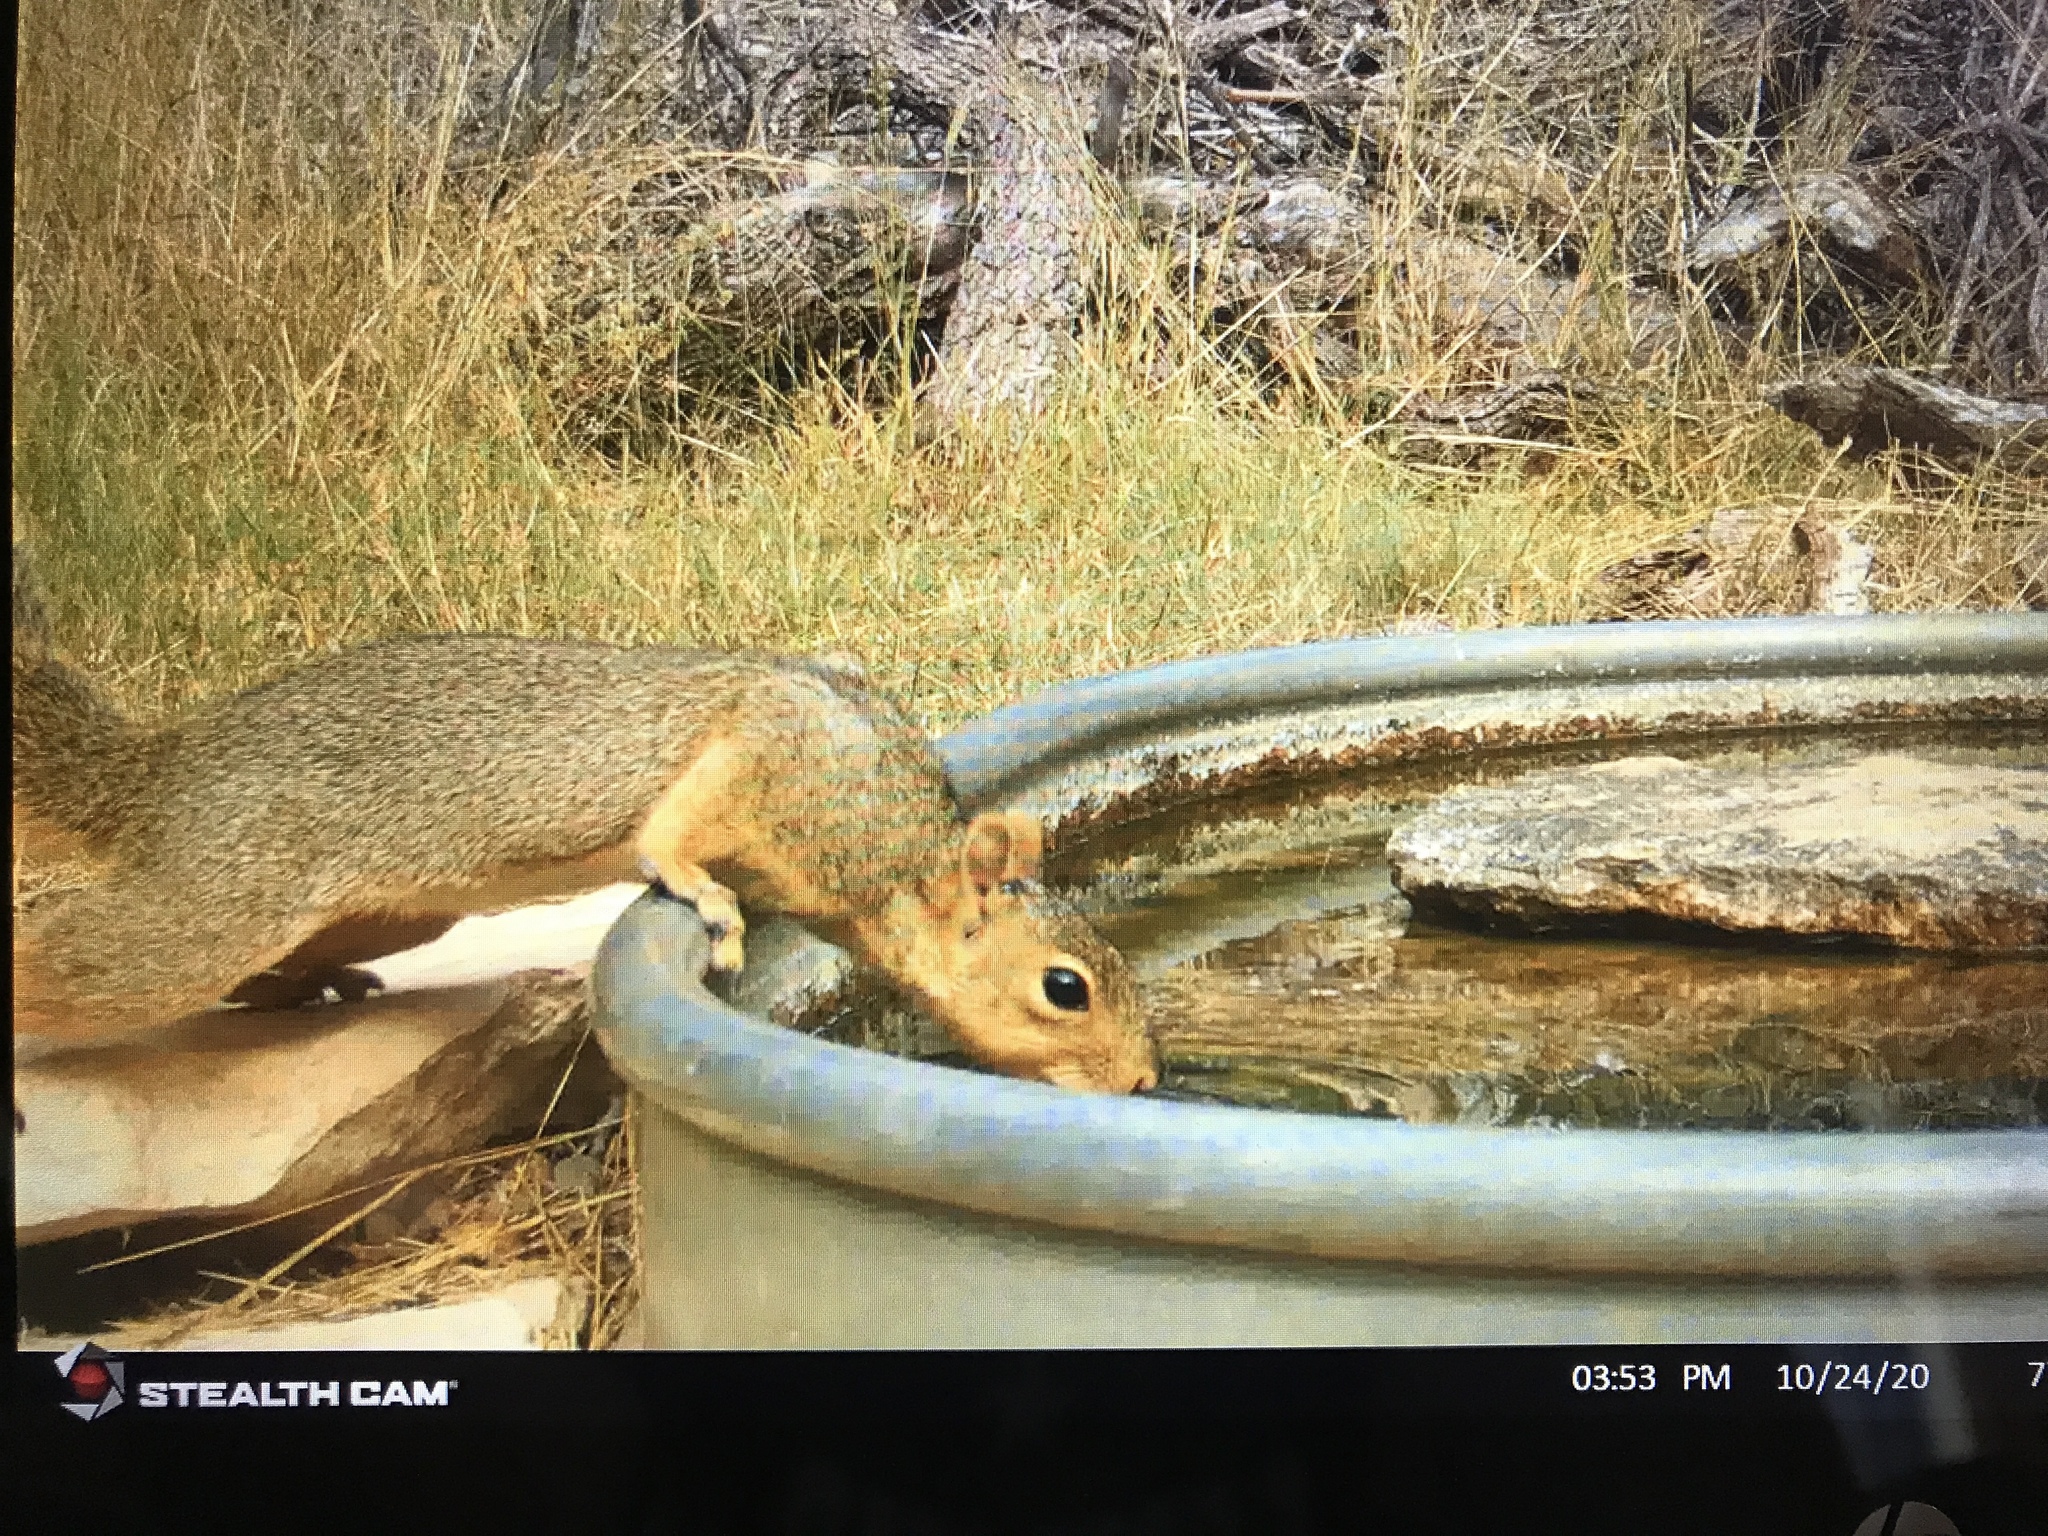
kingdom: Animalia
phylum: Chordata
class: Mammalia
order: Rodentia
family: Sciuridae
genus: Sciurus
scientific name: Sciurus niger
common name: Fox squirrel
